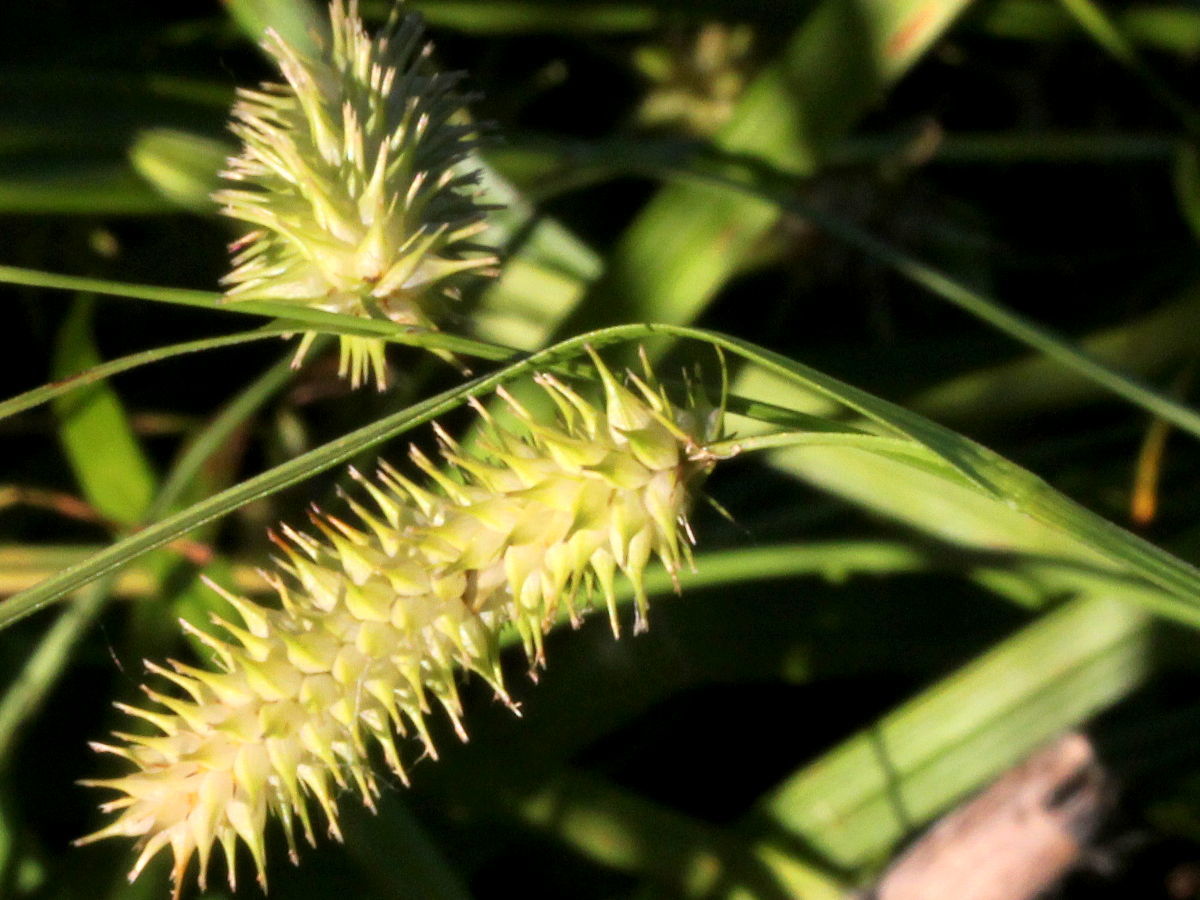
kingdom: Plantae
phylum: Tracheophyta
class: Liliopsida
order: Poales
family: Cyperaceae
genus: Carex
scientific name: Carex hystericina
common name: Bottlebrush sedge
